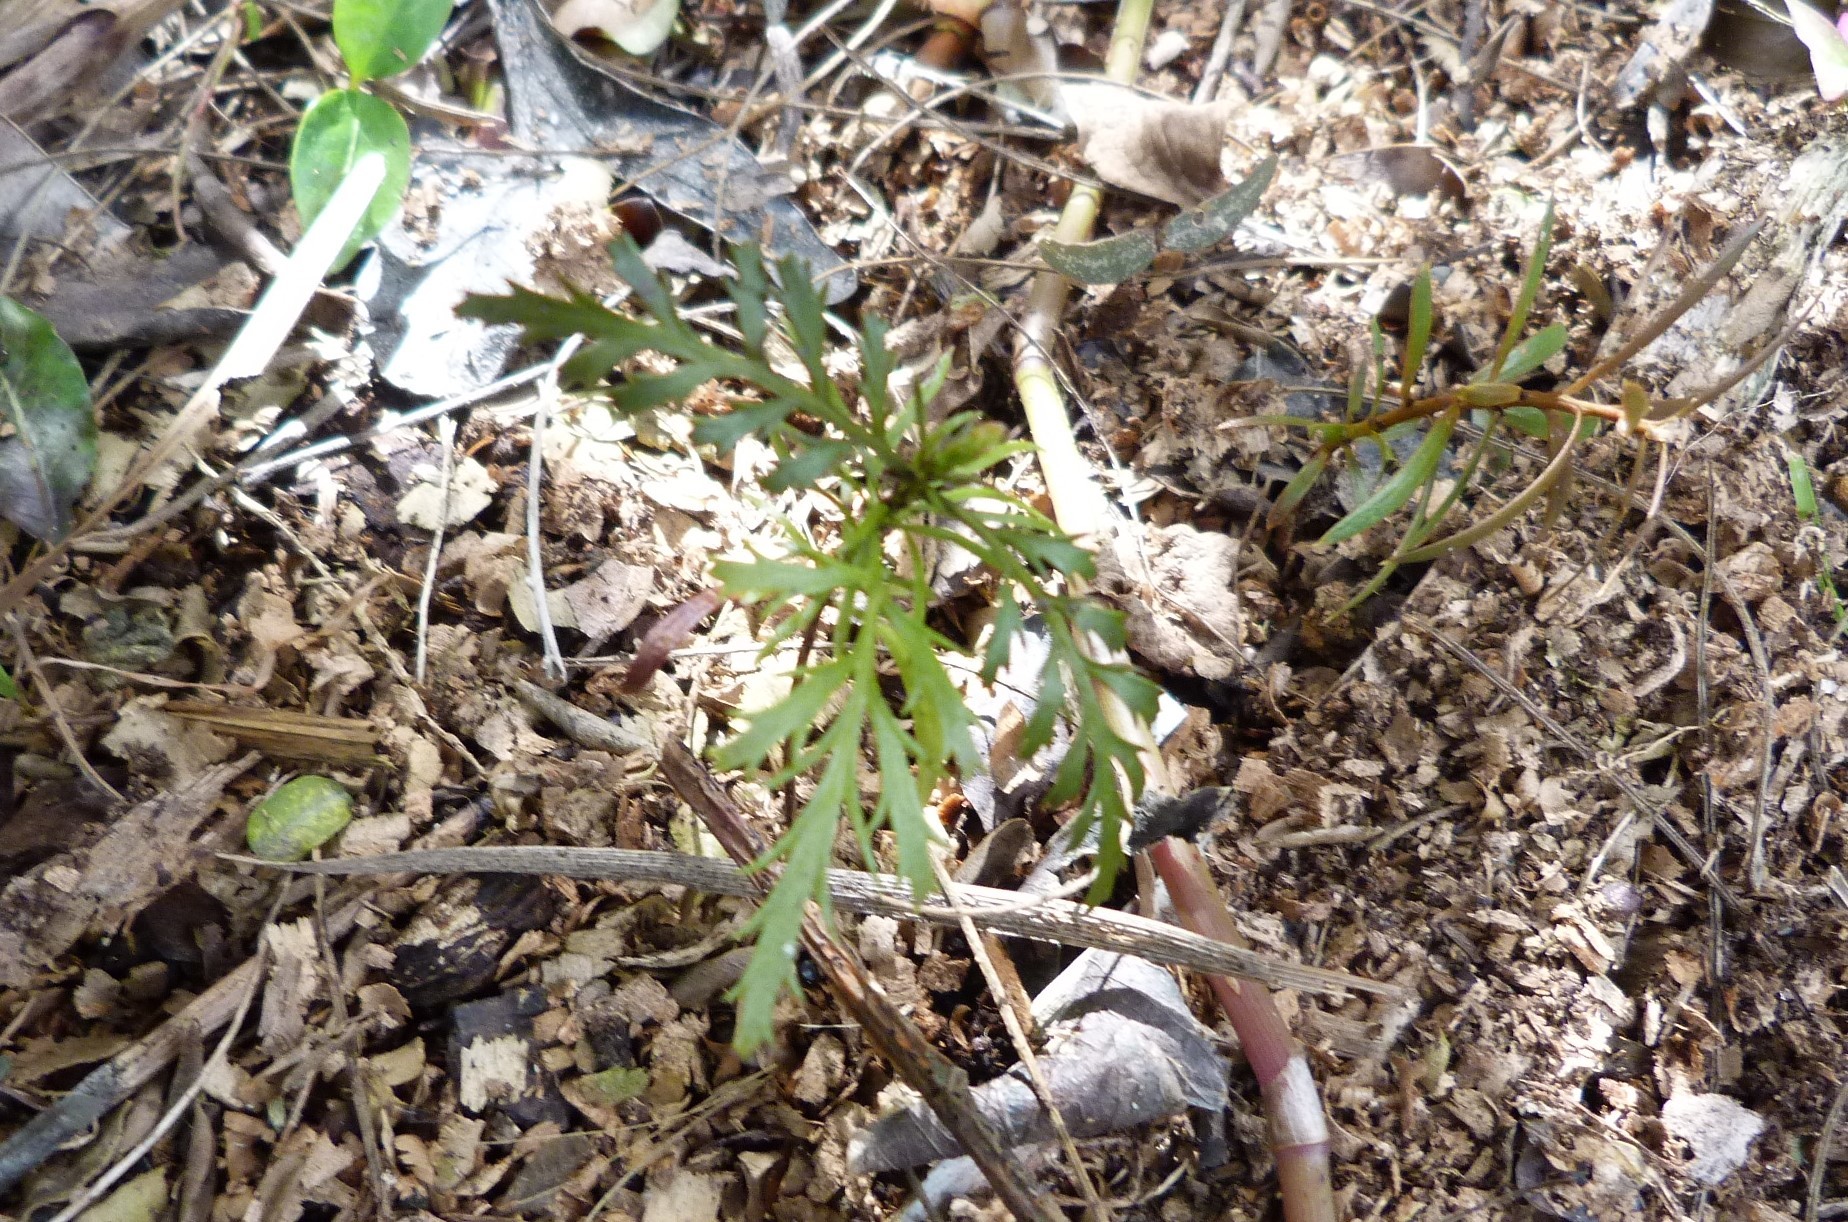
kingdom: Plantae
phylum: Tracheophyta
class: Pinopsida
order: Pinales
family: Phyllocladaceae
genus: Phyllocladus
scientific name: Phyllocladus trichomanoides
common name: Celery pine
